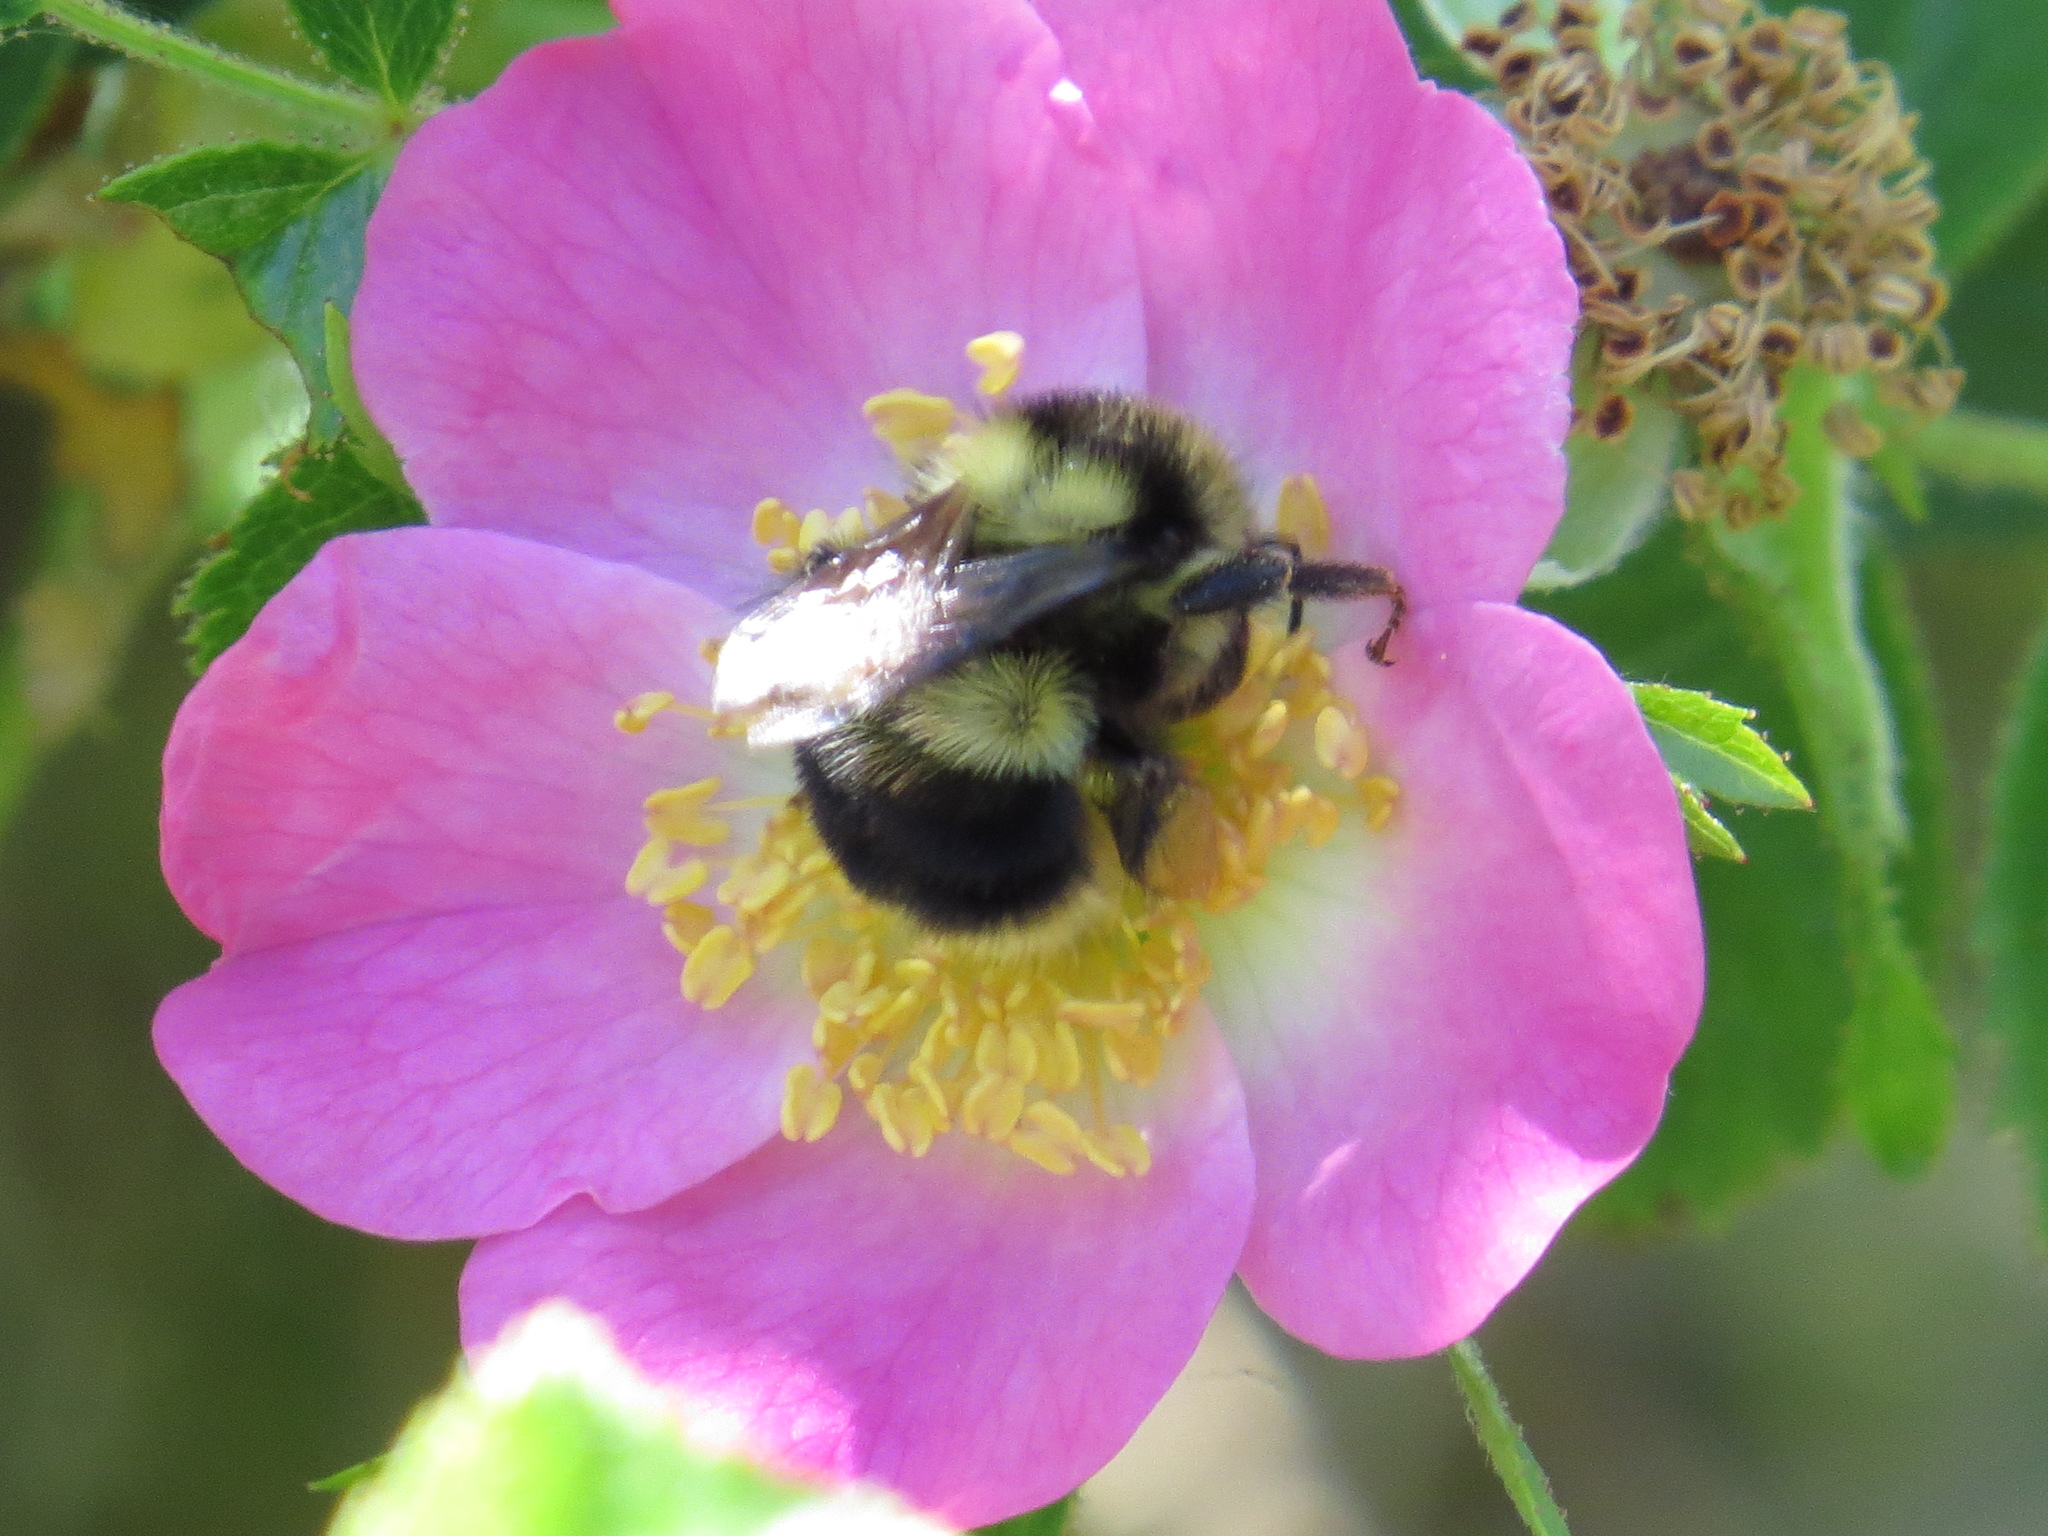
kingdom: Animalia
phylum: Arthropoda
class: Insecta
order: Hymenoptera
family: Apidae
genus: Bombus
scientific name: Bombus melanopygus
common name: Black tail bumble bee
